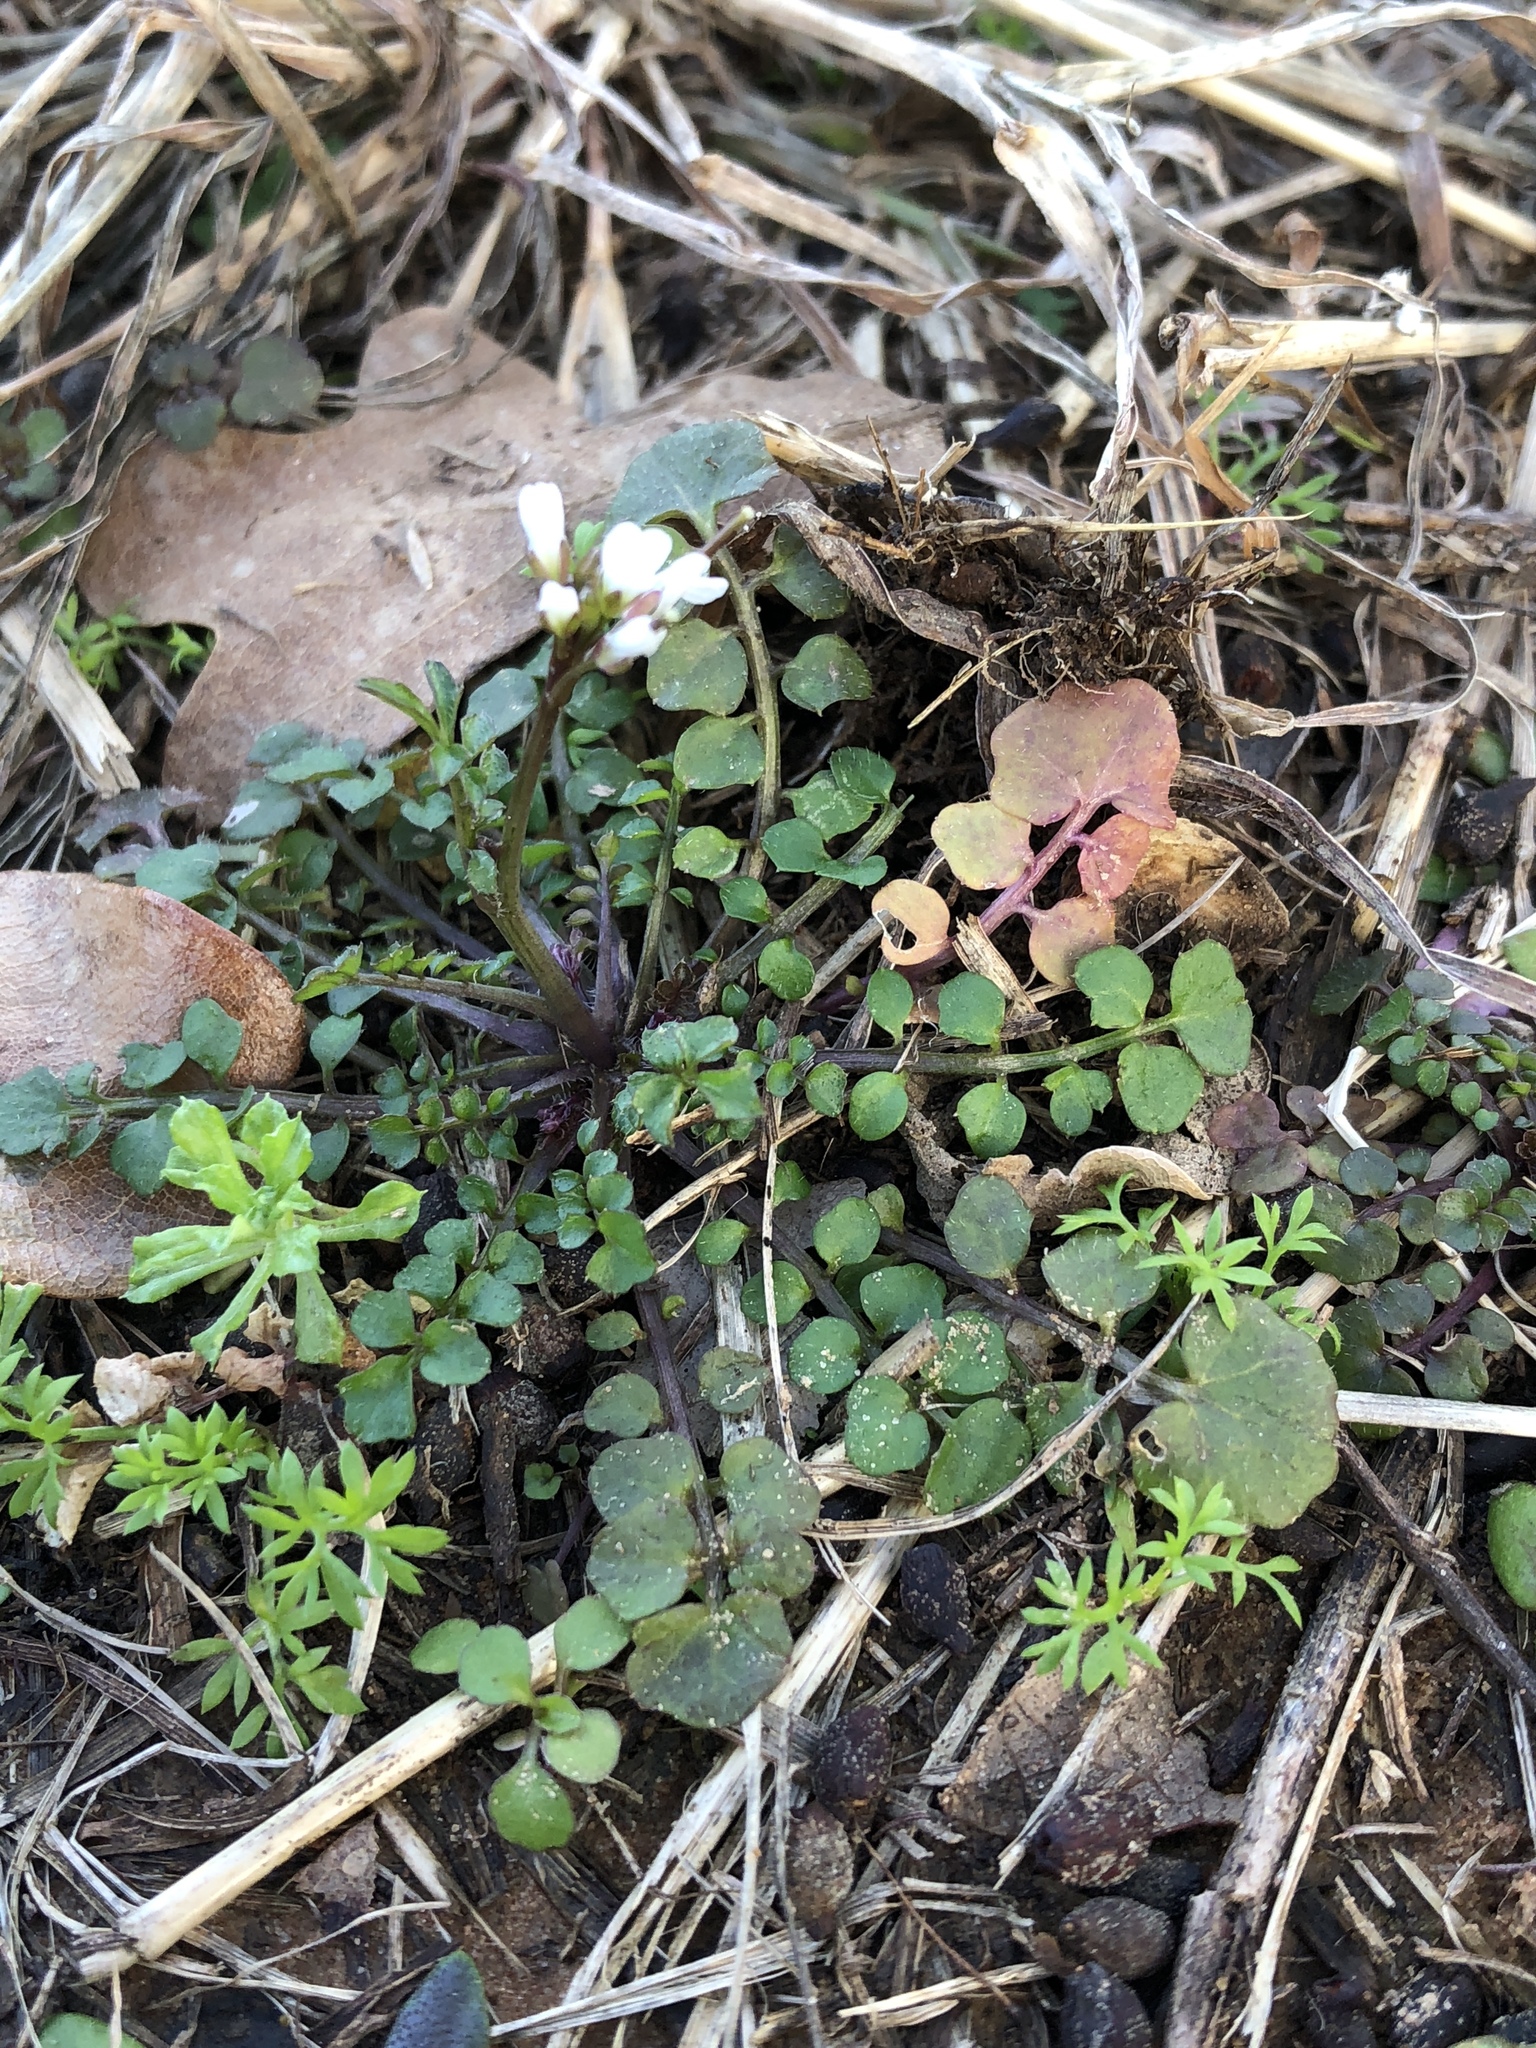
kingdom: Plantae
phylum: Tracheophyta
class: Magnoliopsida
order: Brassicales
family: Brassicaceae
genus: Cardamine
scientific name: Cardamine hirsuta
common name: Hairy bittercress
